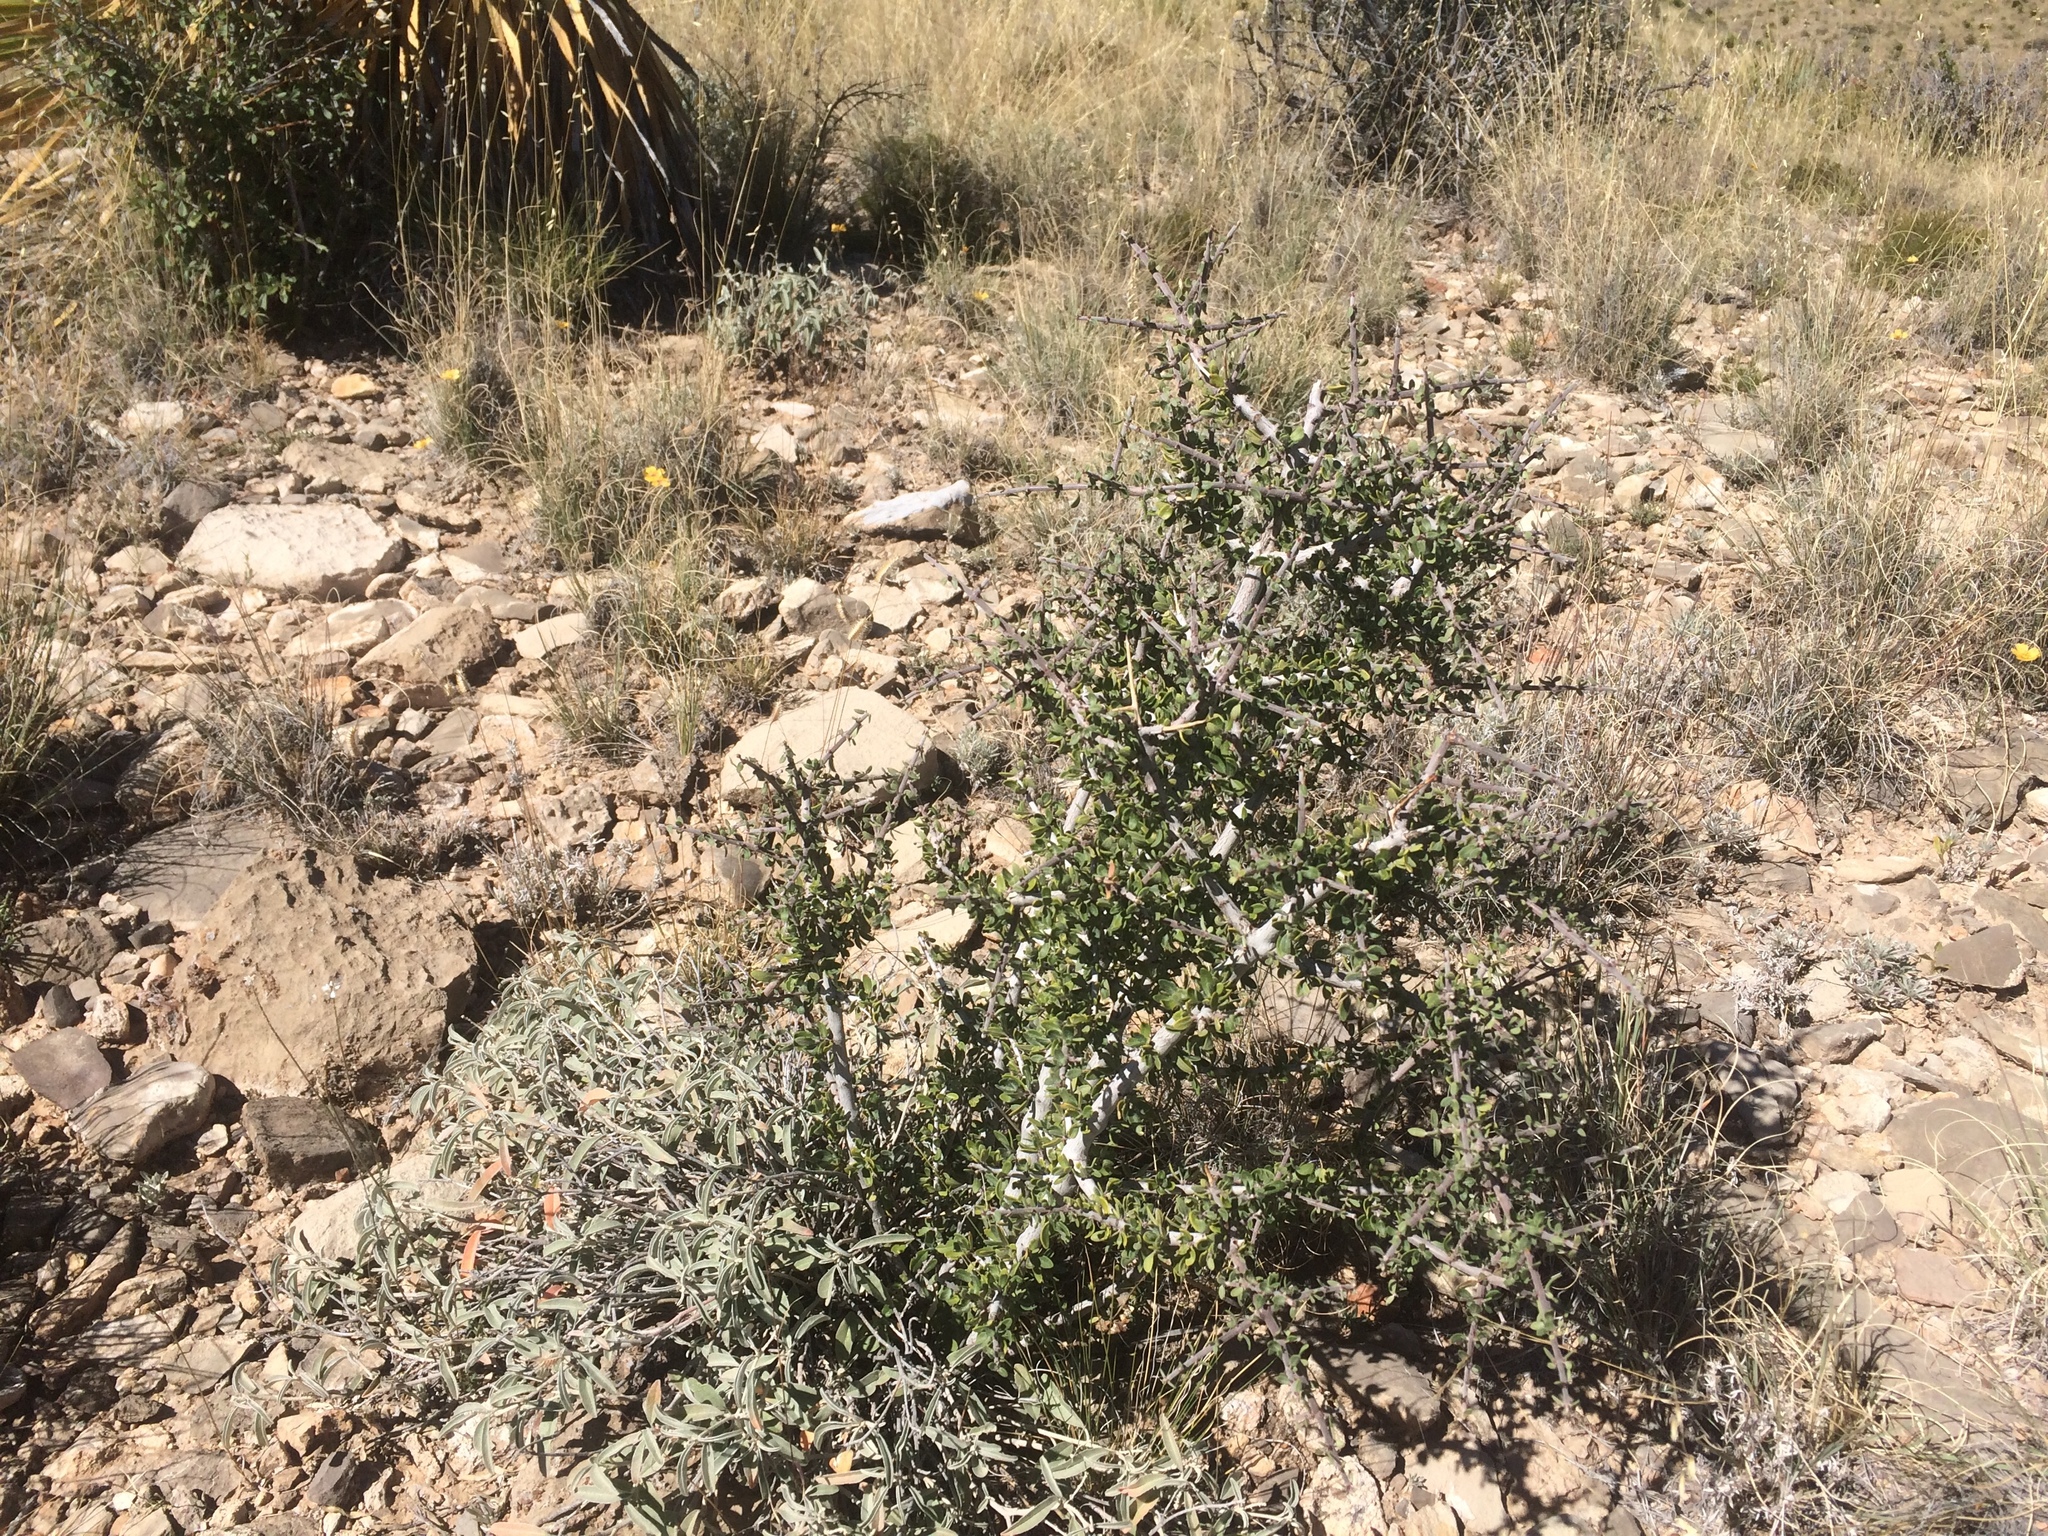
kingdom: Plantae
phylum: Tracheophyta
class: Magnoliopsida
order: Rosales
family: Rhamnaceae
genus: Ceanothus
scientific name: Ceanothus pauciflorus
